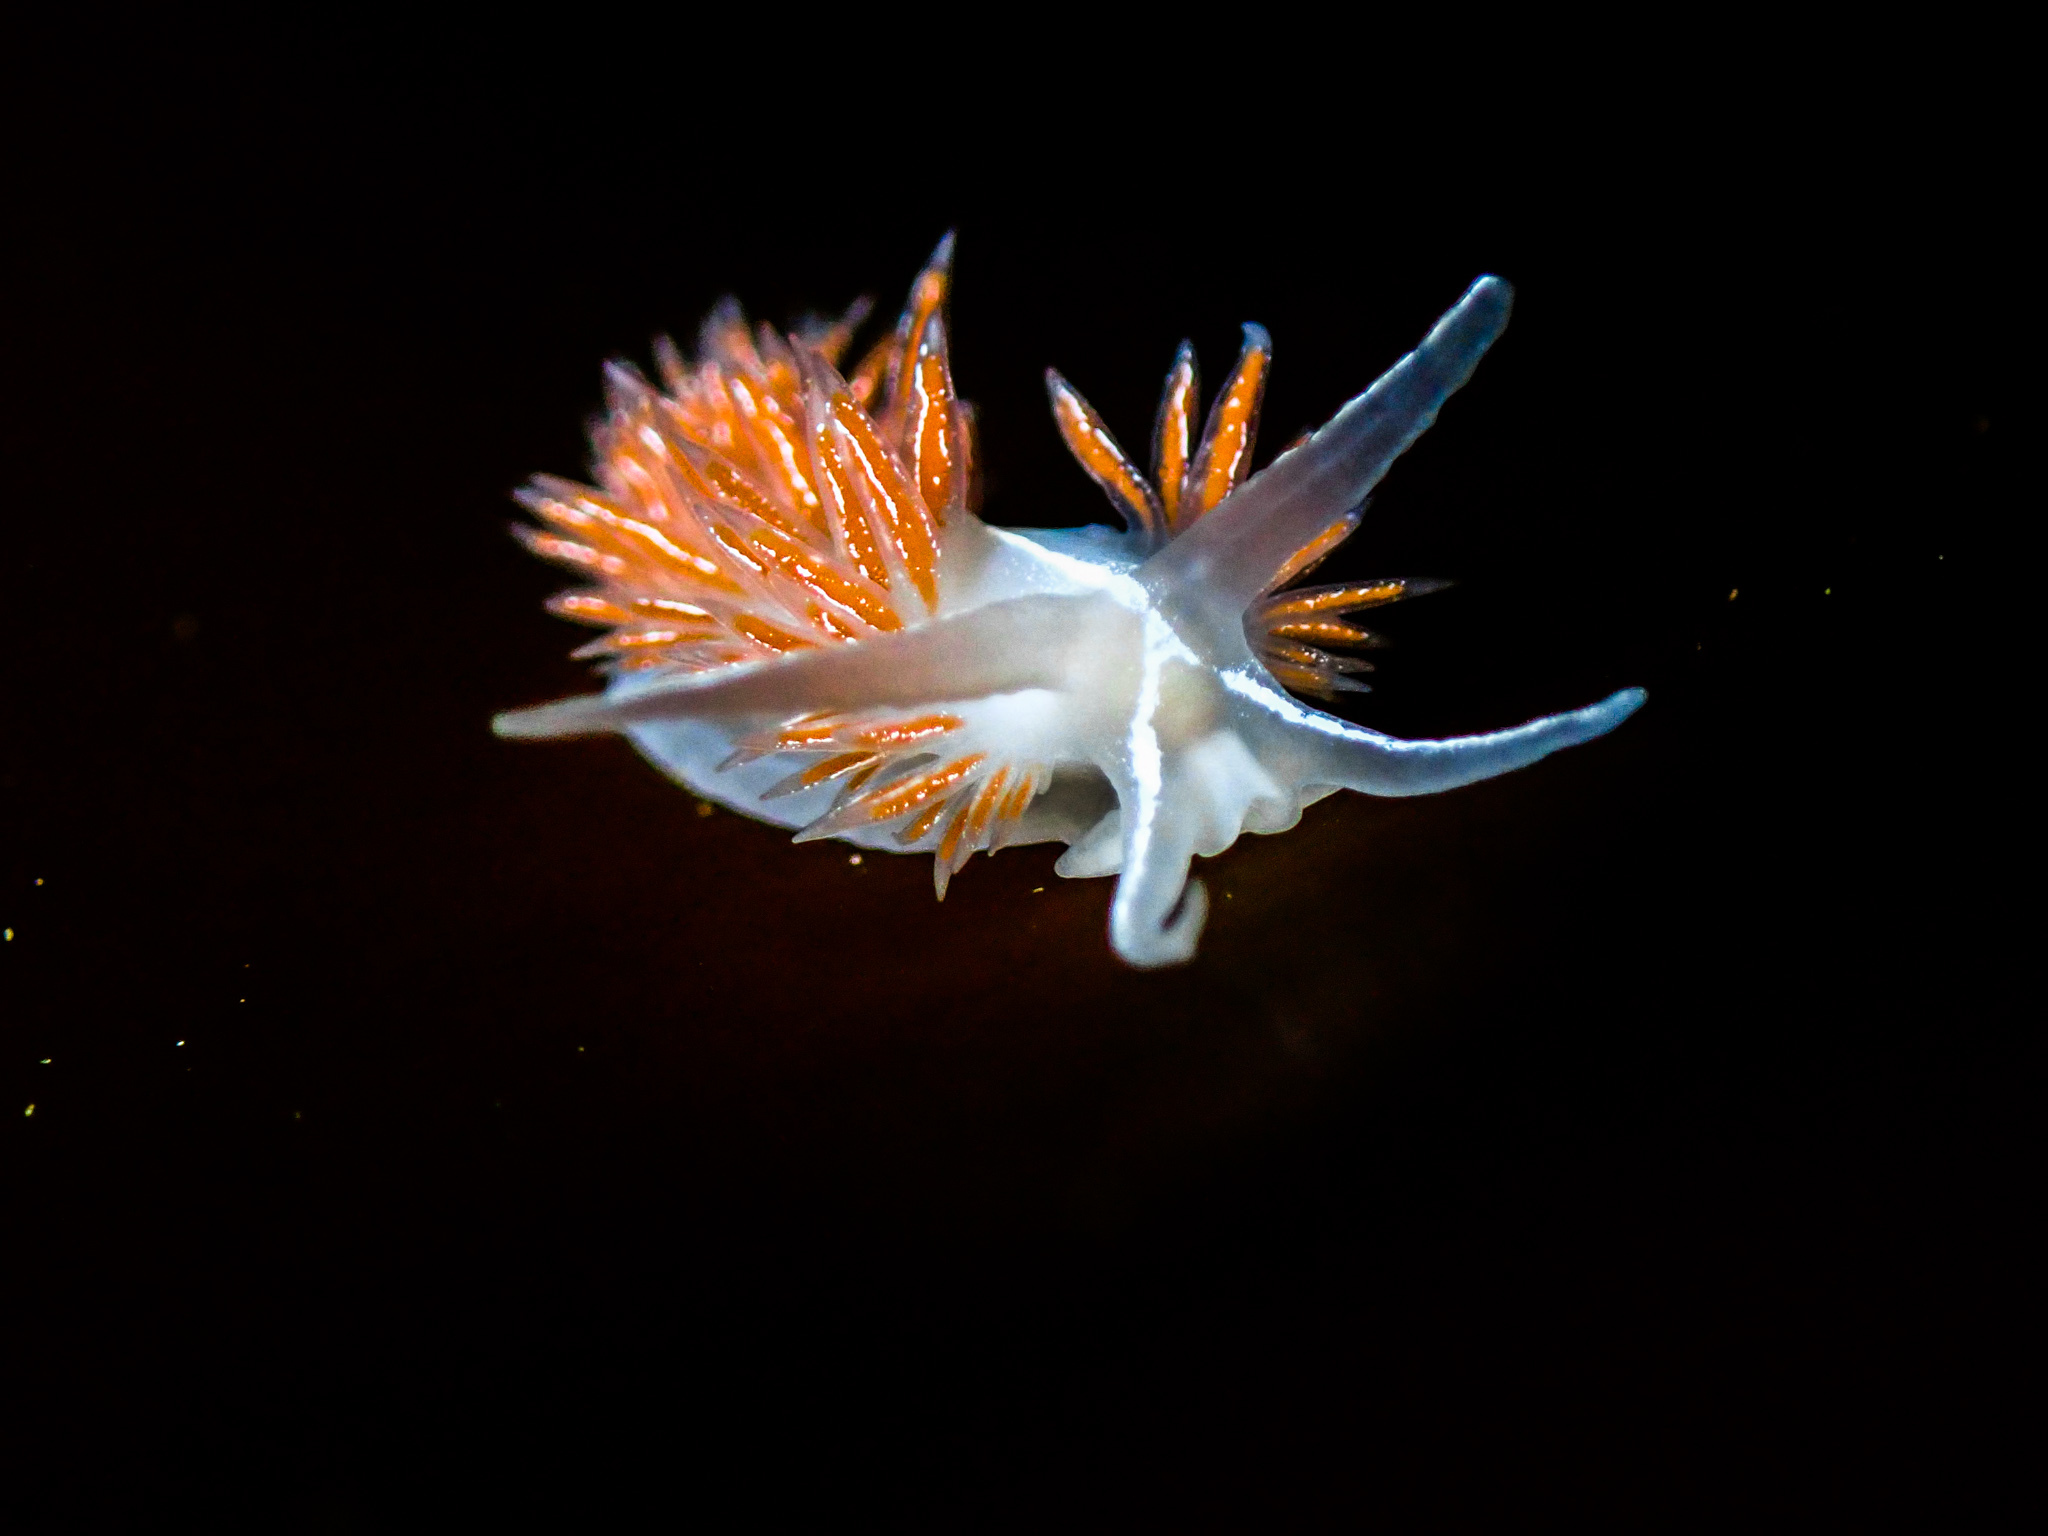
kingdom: Animalia
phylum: Mollusca
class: Gastropoda
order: Nudibranchia
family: Coryphellidae
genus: Coryphella
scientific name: Coryphella chriskaugei
